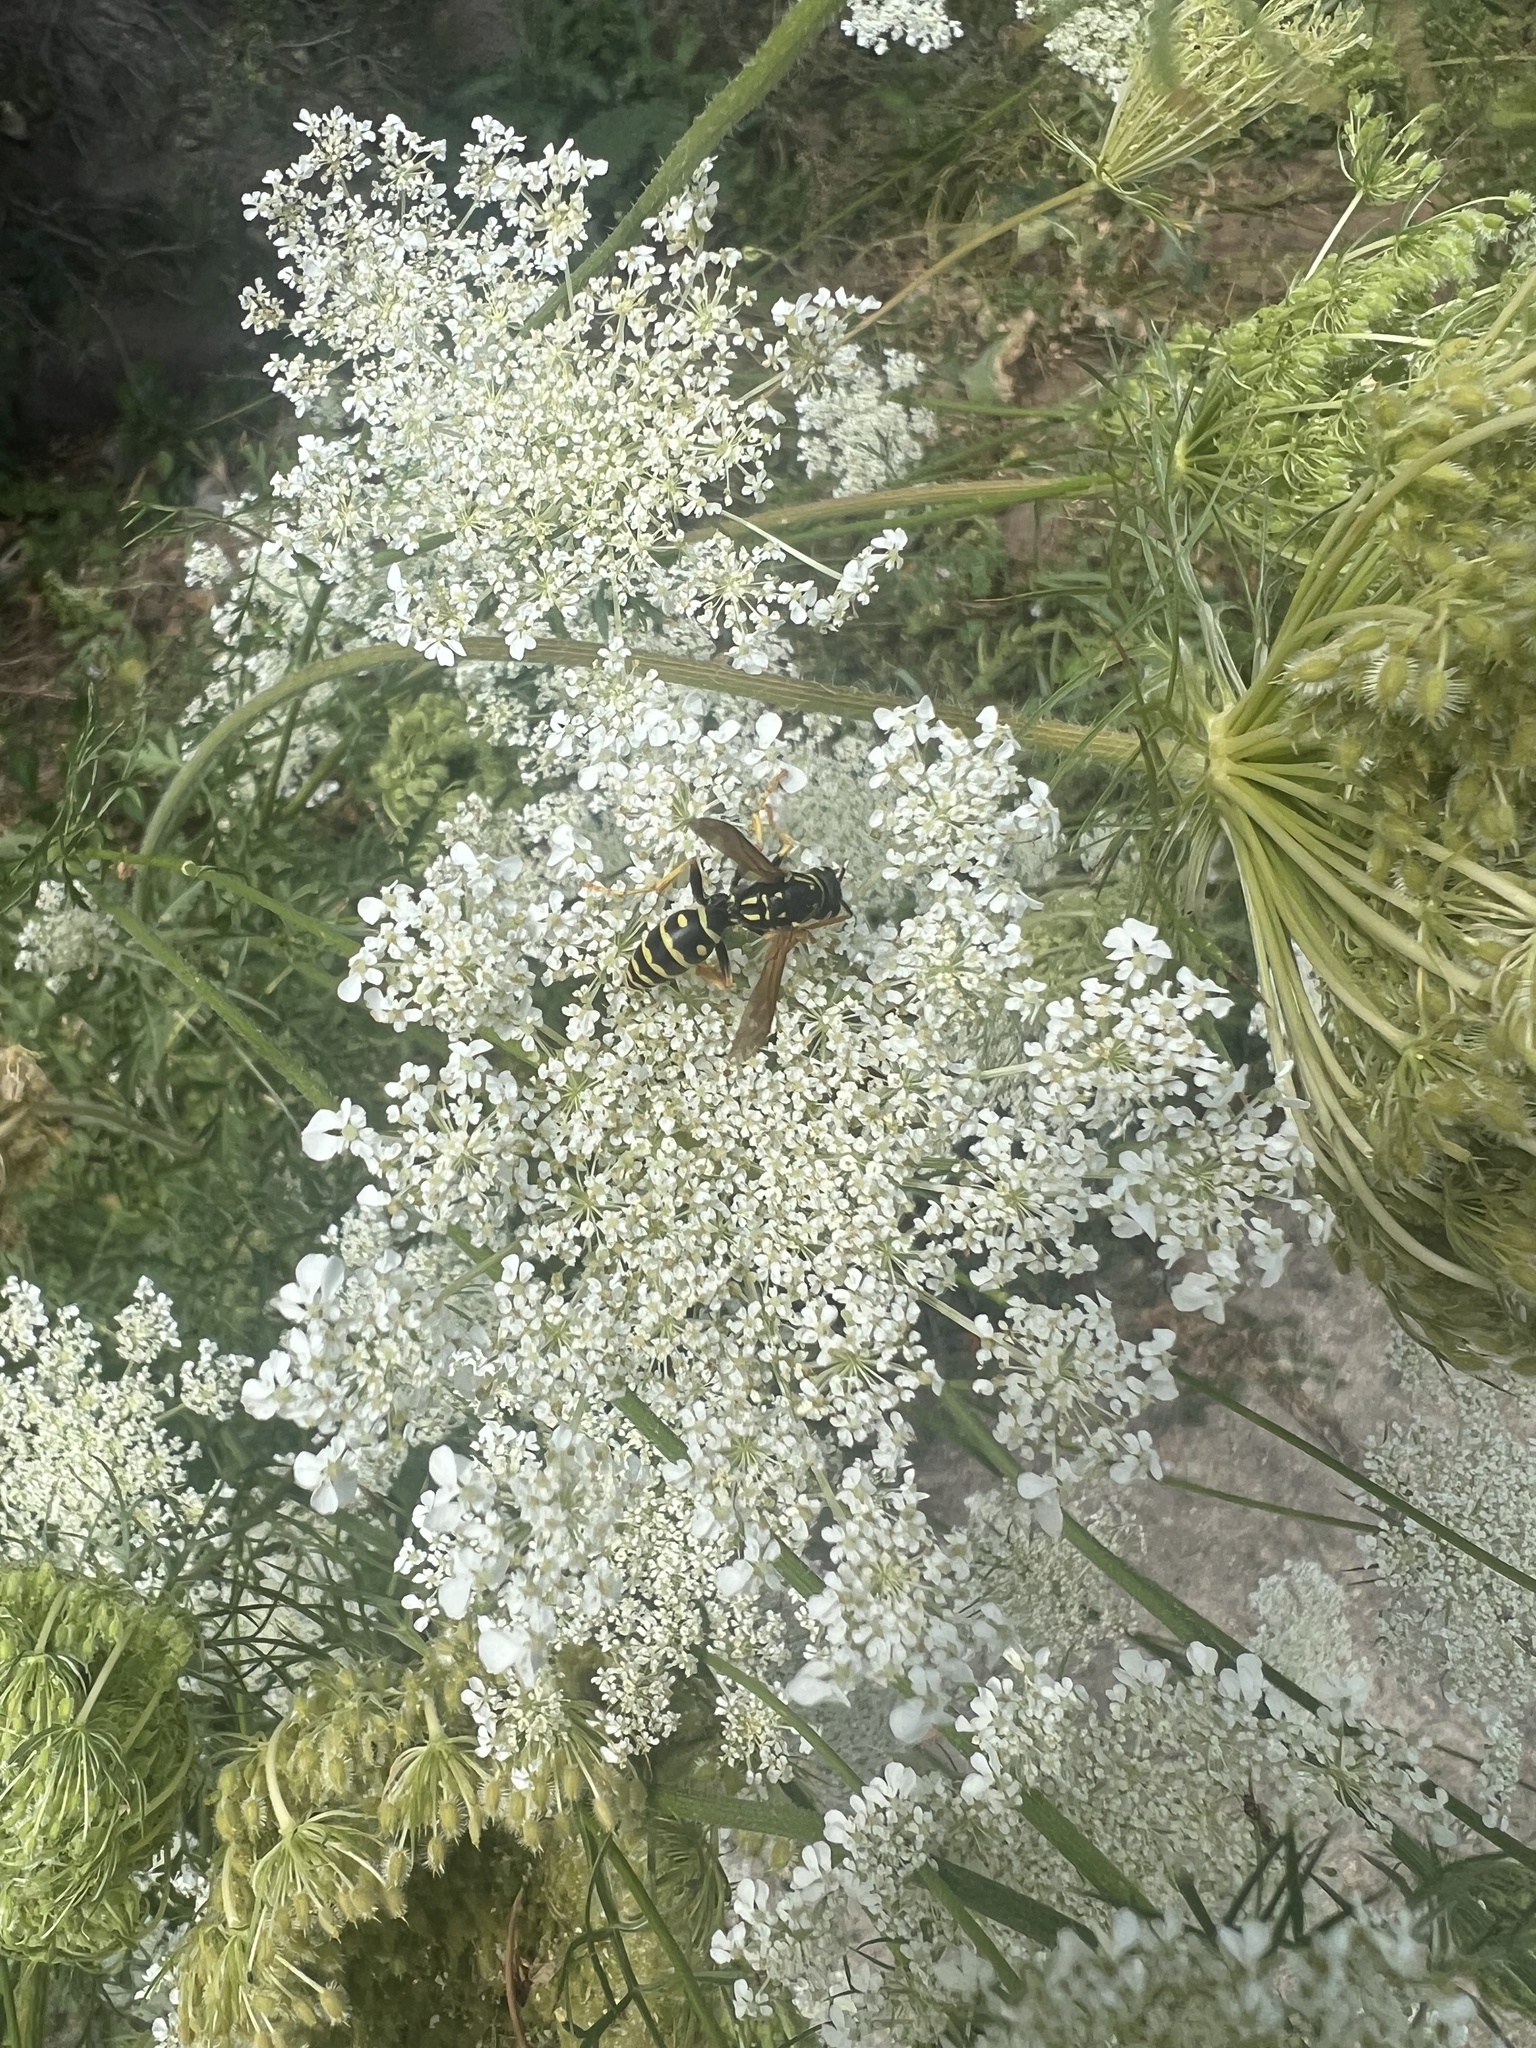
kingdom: Animalia
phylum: Arthropoda
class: Insecta
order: Hymenoptera
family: Eumenidae
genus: Polistes
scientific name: Polistes dominula
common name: Paper wasp
